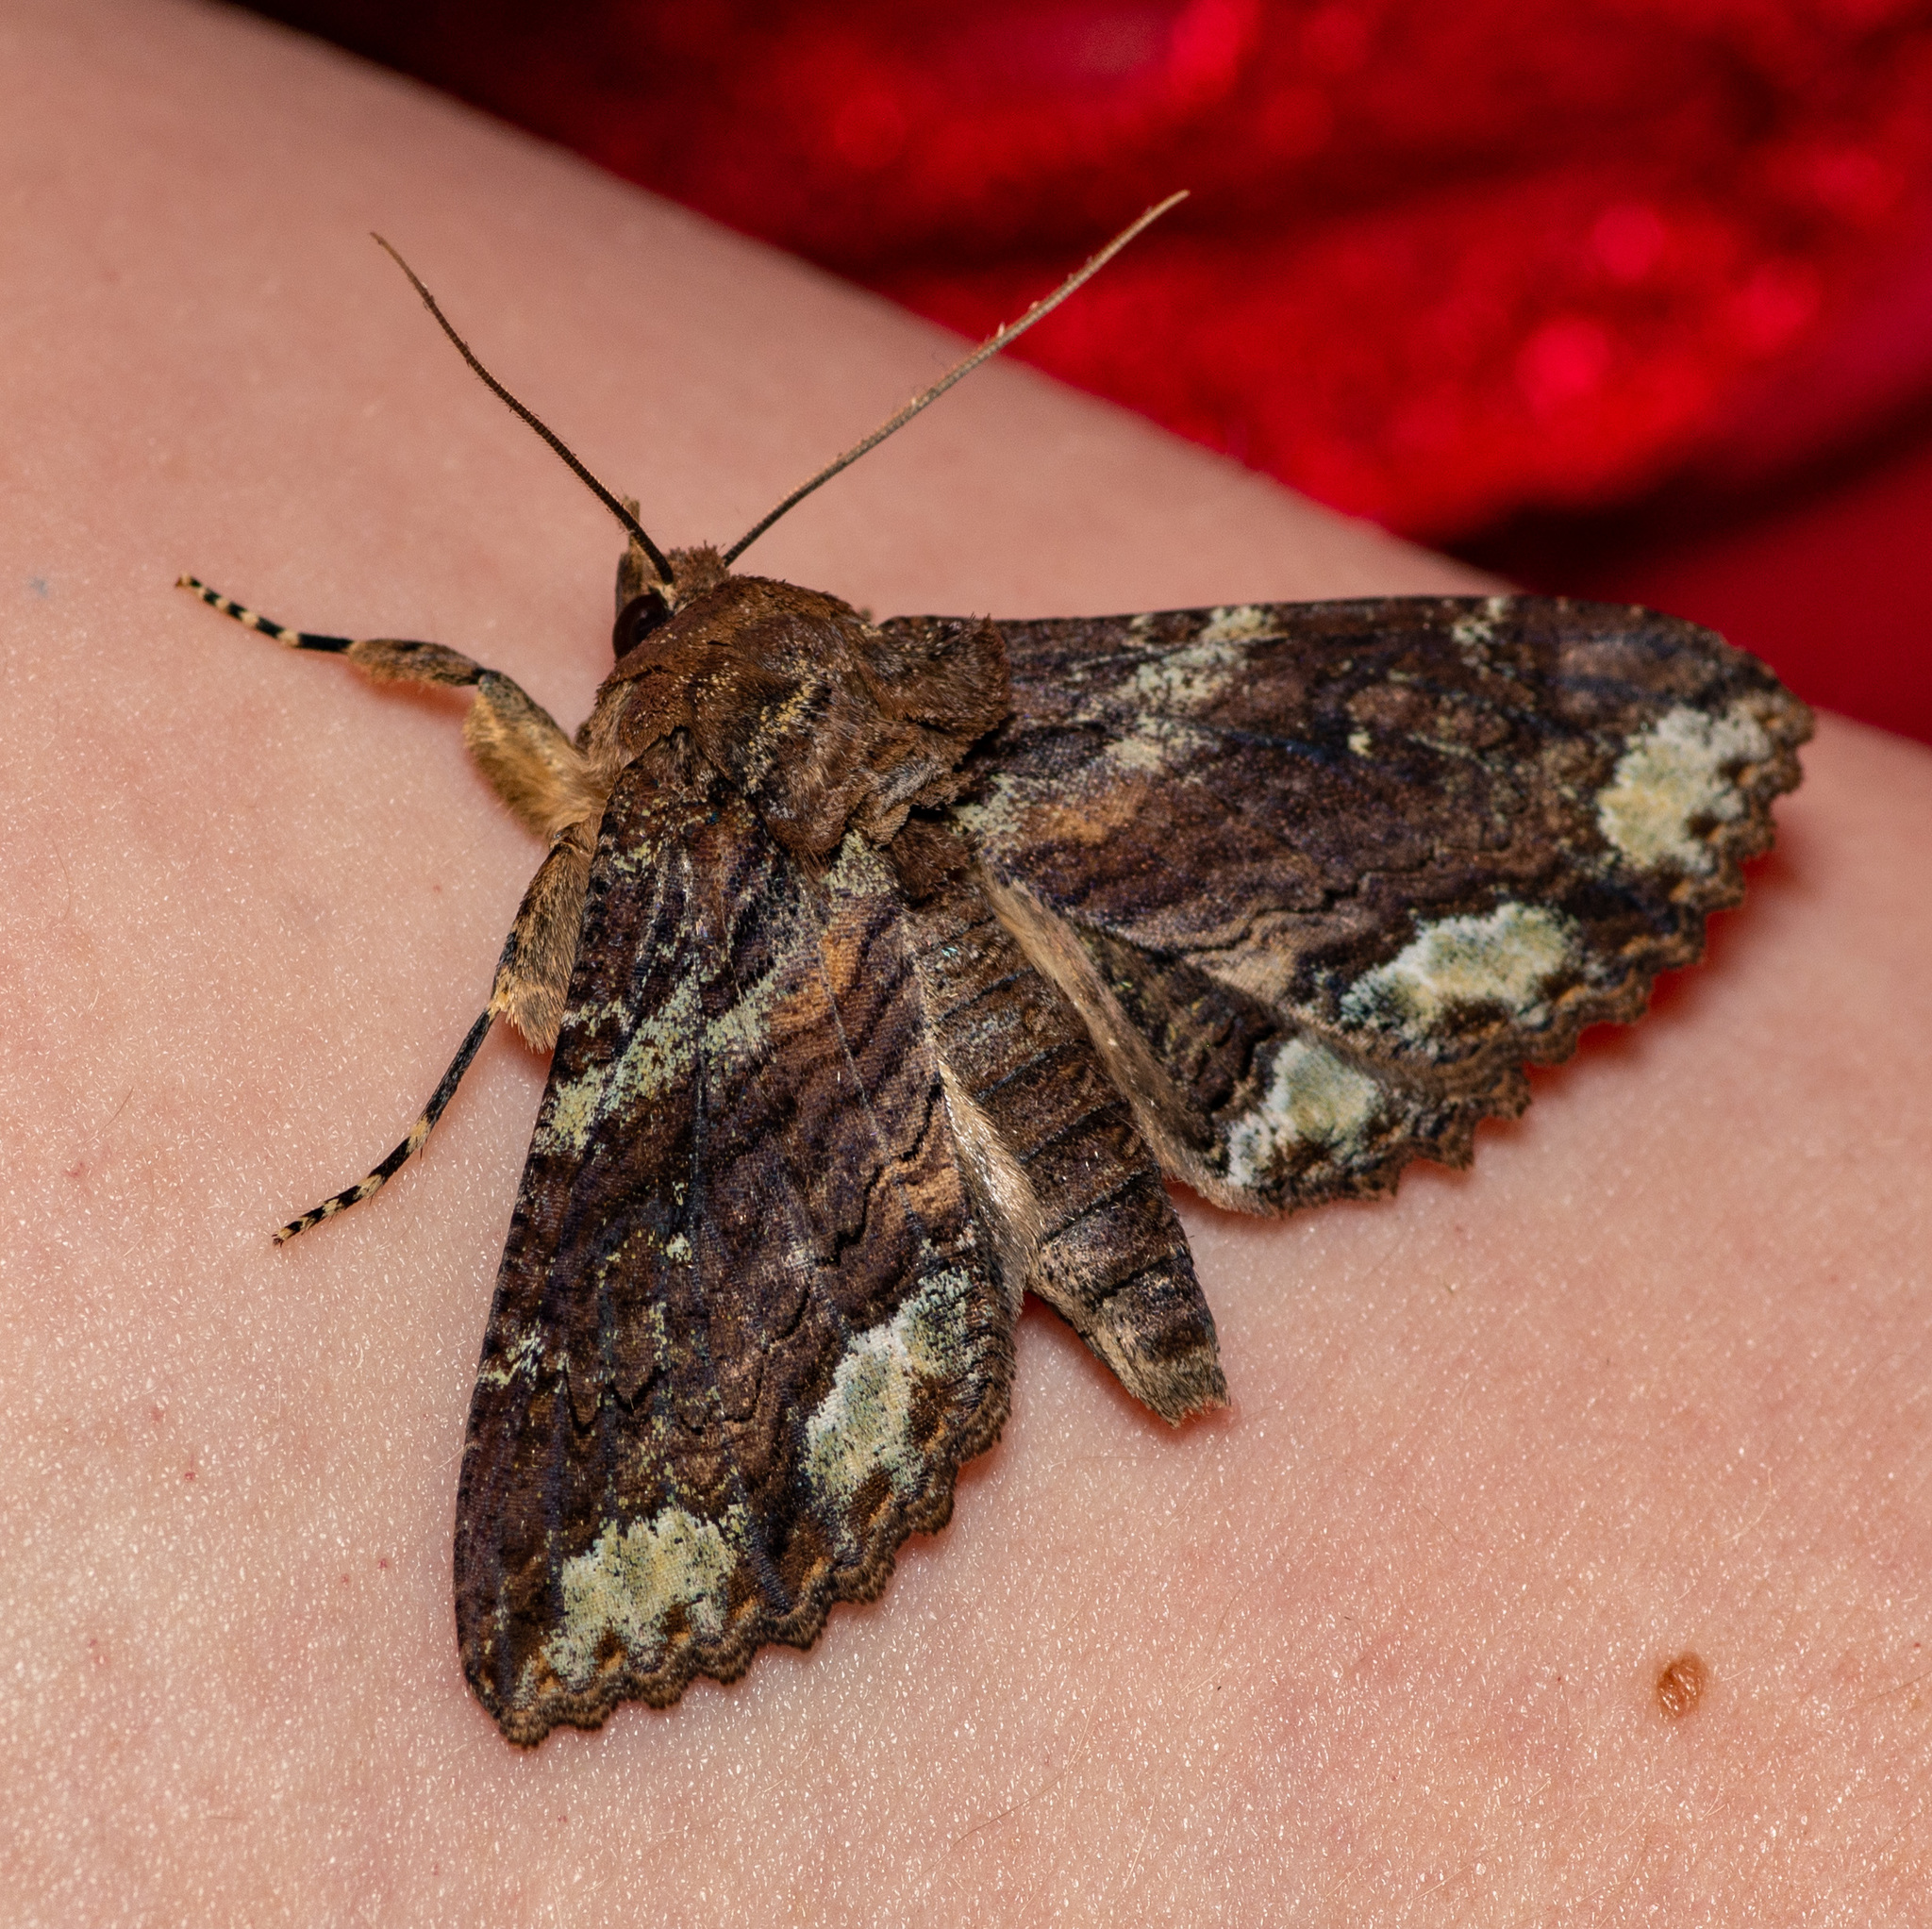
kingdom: Animalia
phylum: Arthropoda
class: Insecta
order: Lepidoptera
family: Erebidae
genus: Zale
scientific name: Zale lunata
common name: Lunate zale moth
